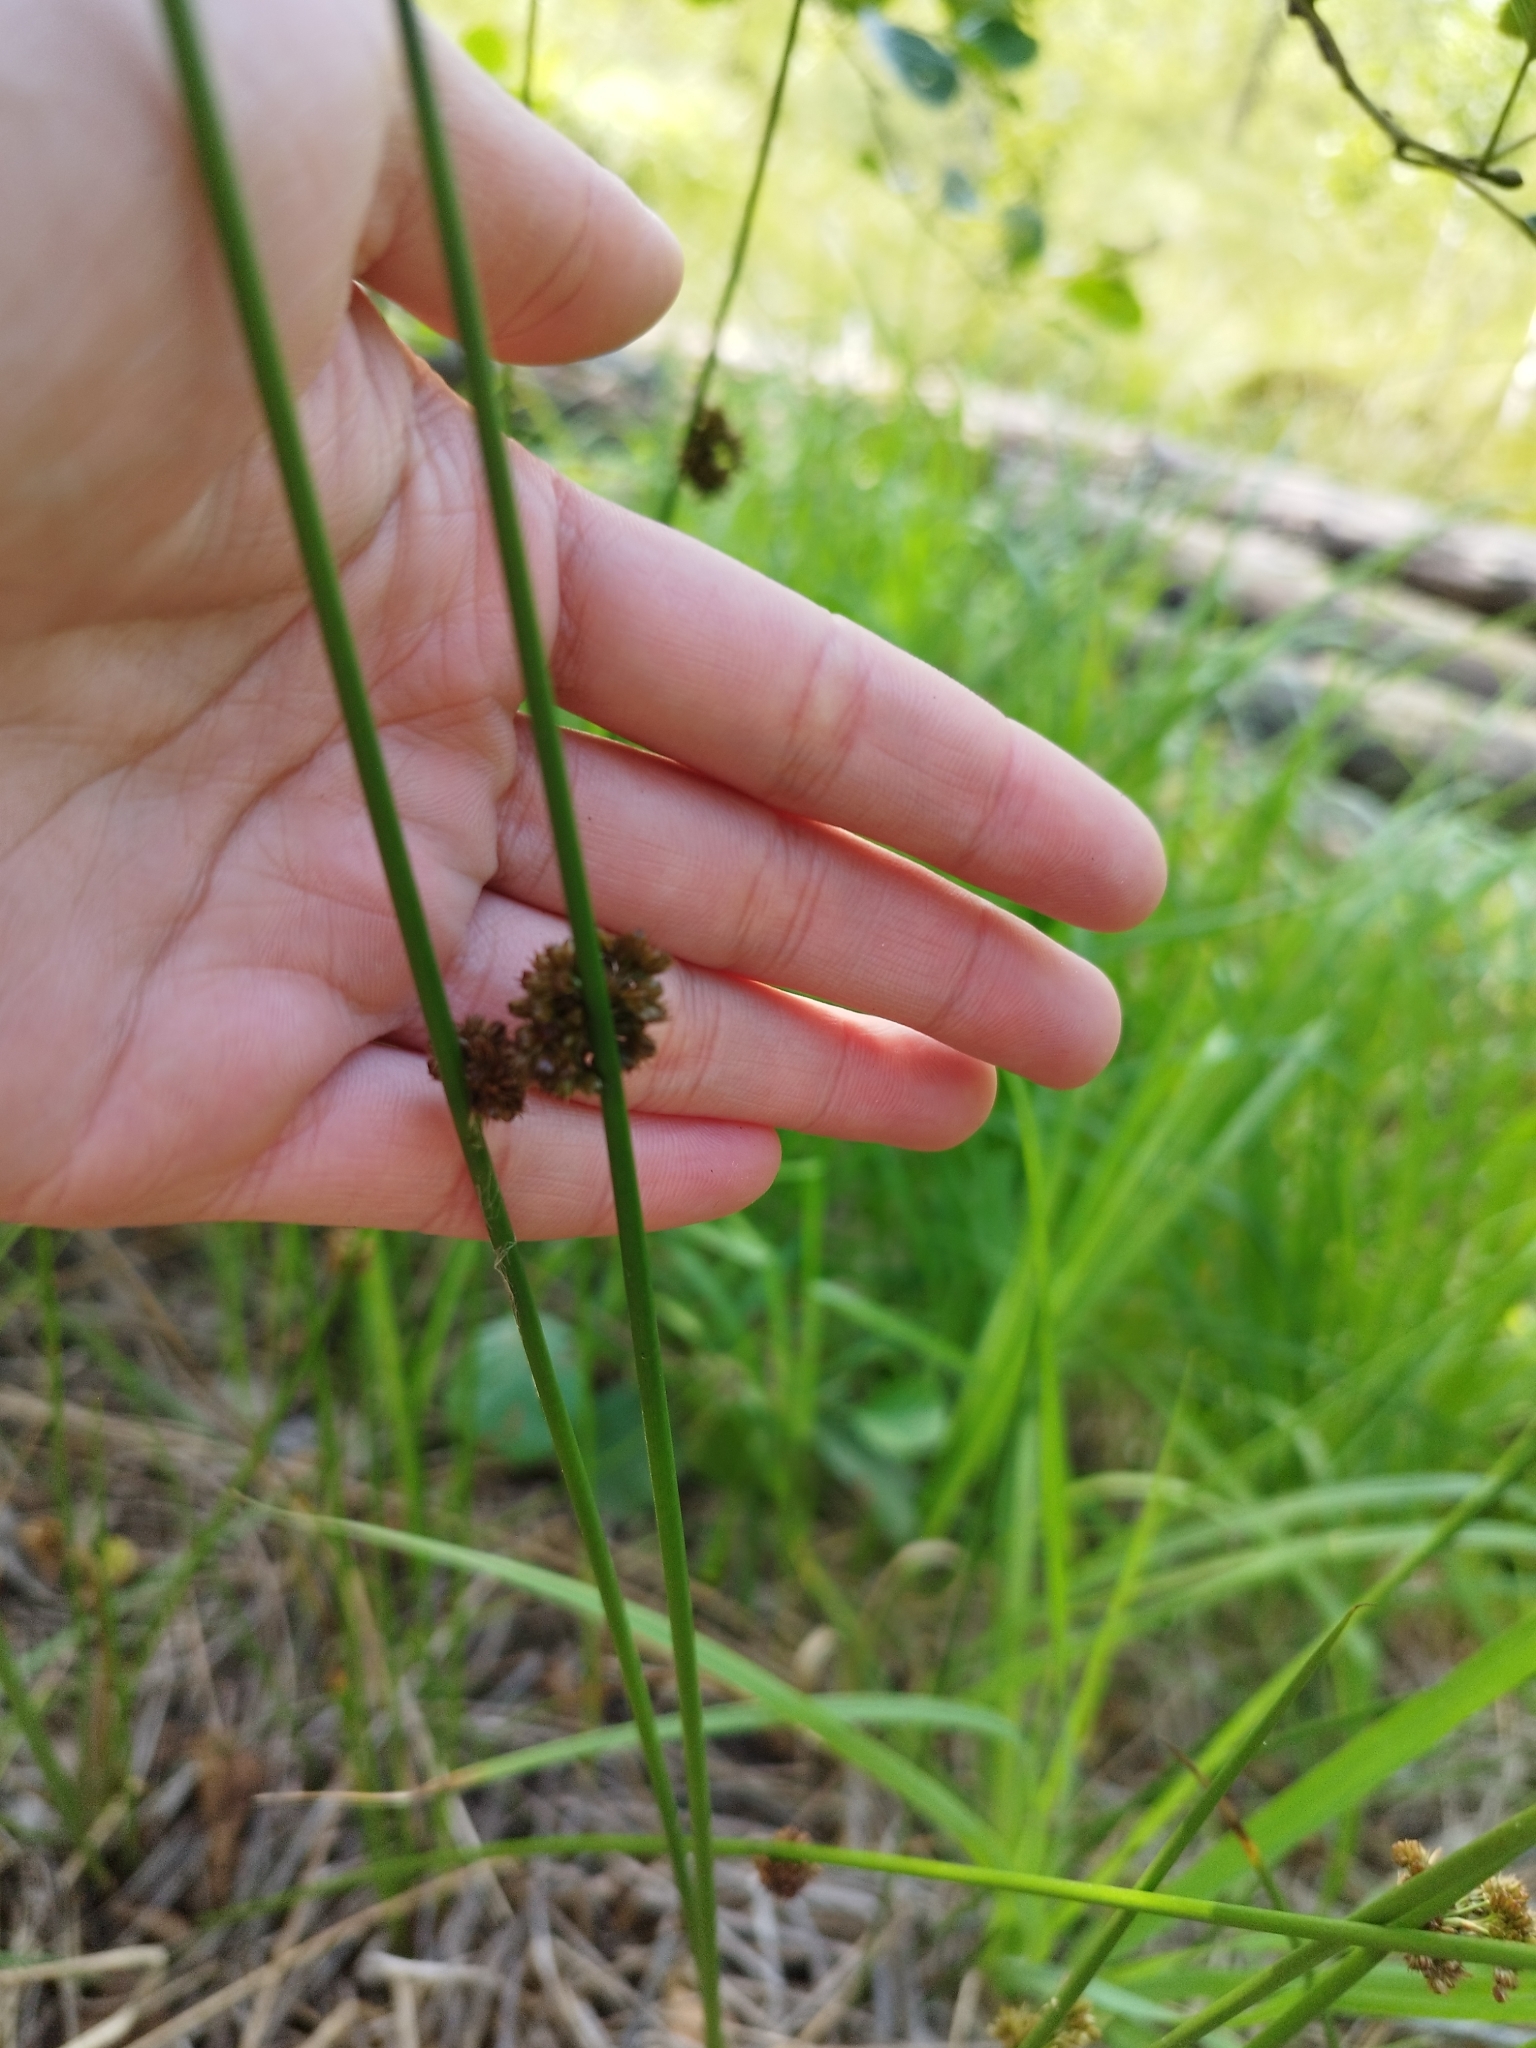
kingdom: Plantae
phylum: Tracheophyta
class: Liliopsida
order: Poales
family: Juncaceae
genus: Juncus
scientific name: Juncus effusus
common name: Soft rush
